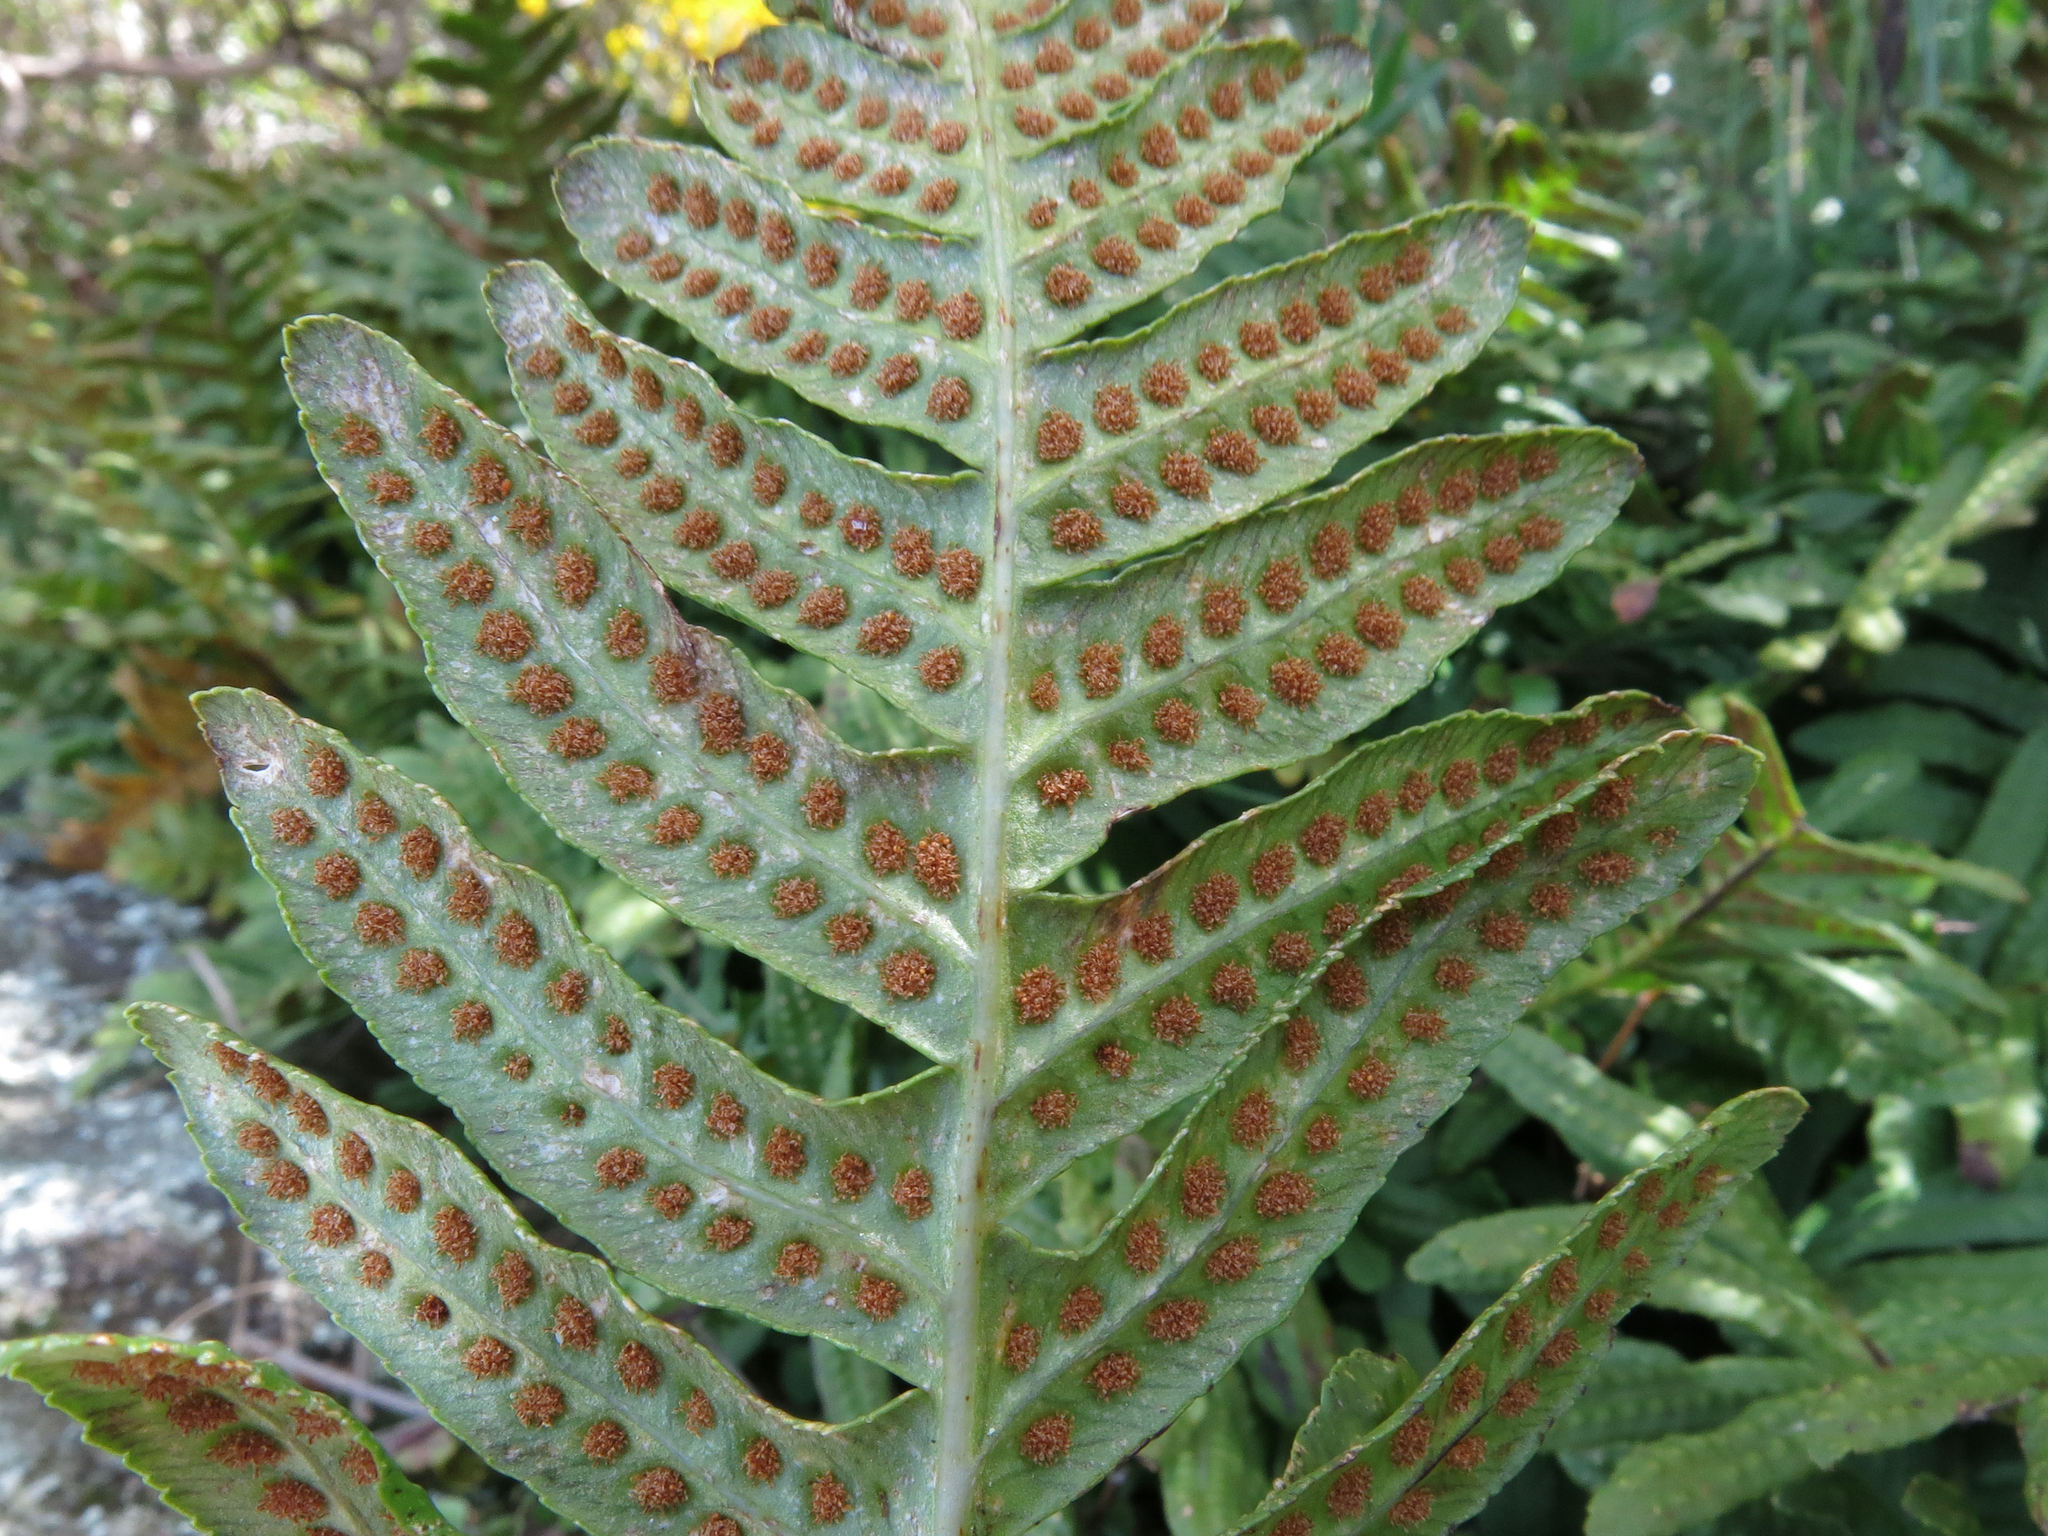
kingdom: Plantae
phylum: Tracheophyta
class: Polypodiopsida
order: Polypodiales
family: Polypodiaceae
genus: Polypodium
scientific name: Polypodium vulgare
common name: Common polypody
